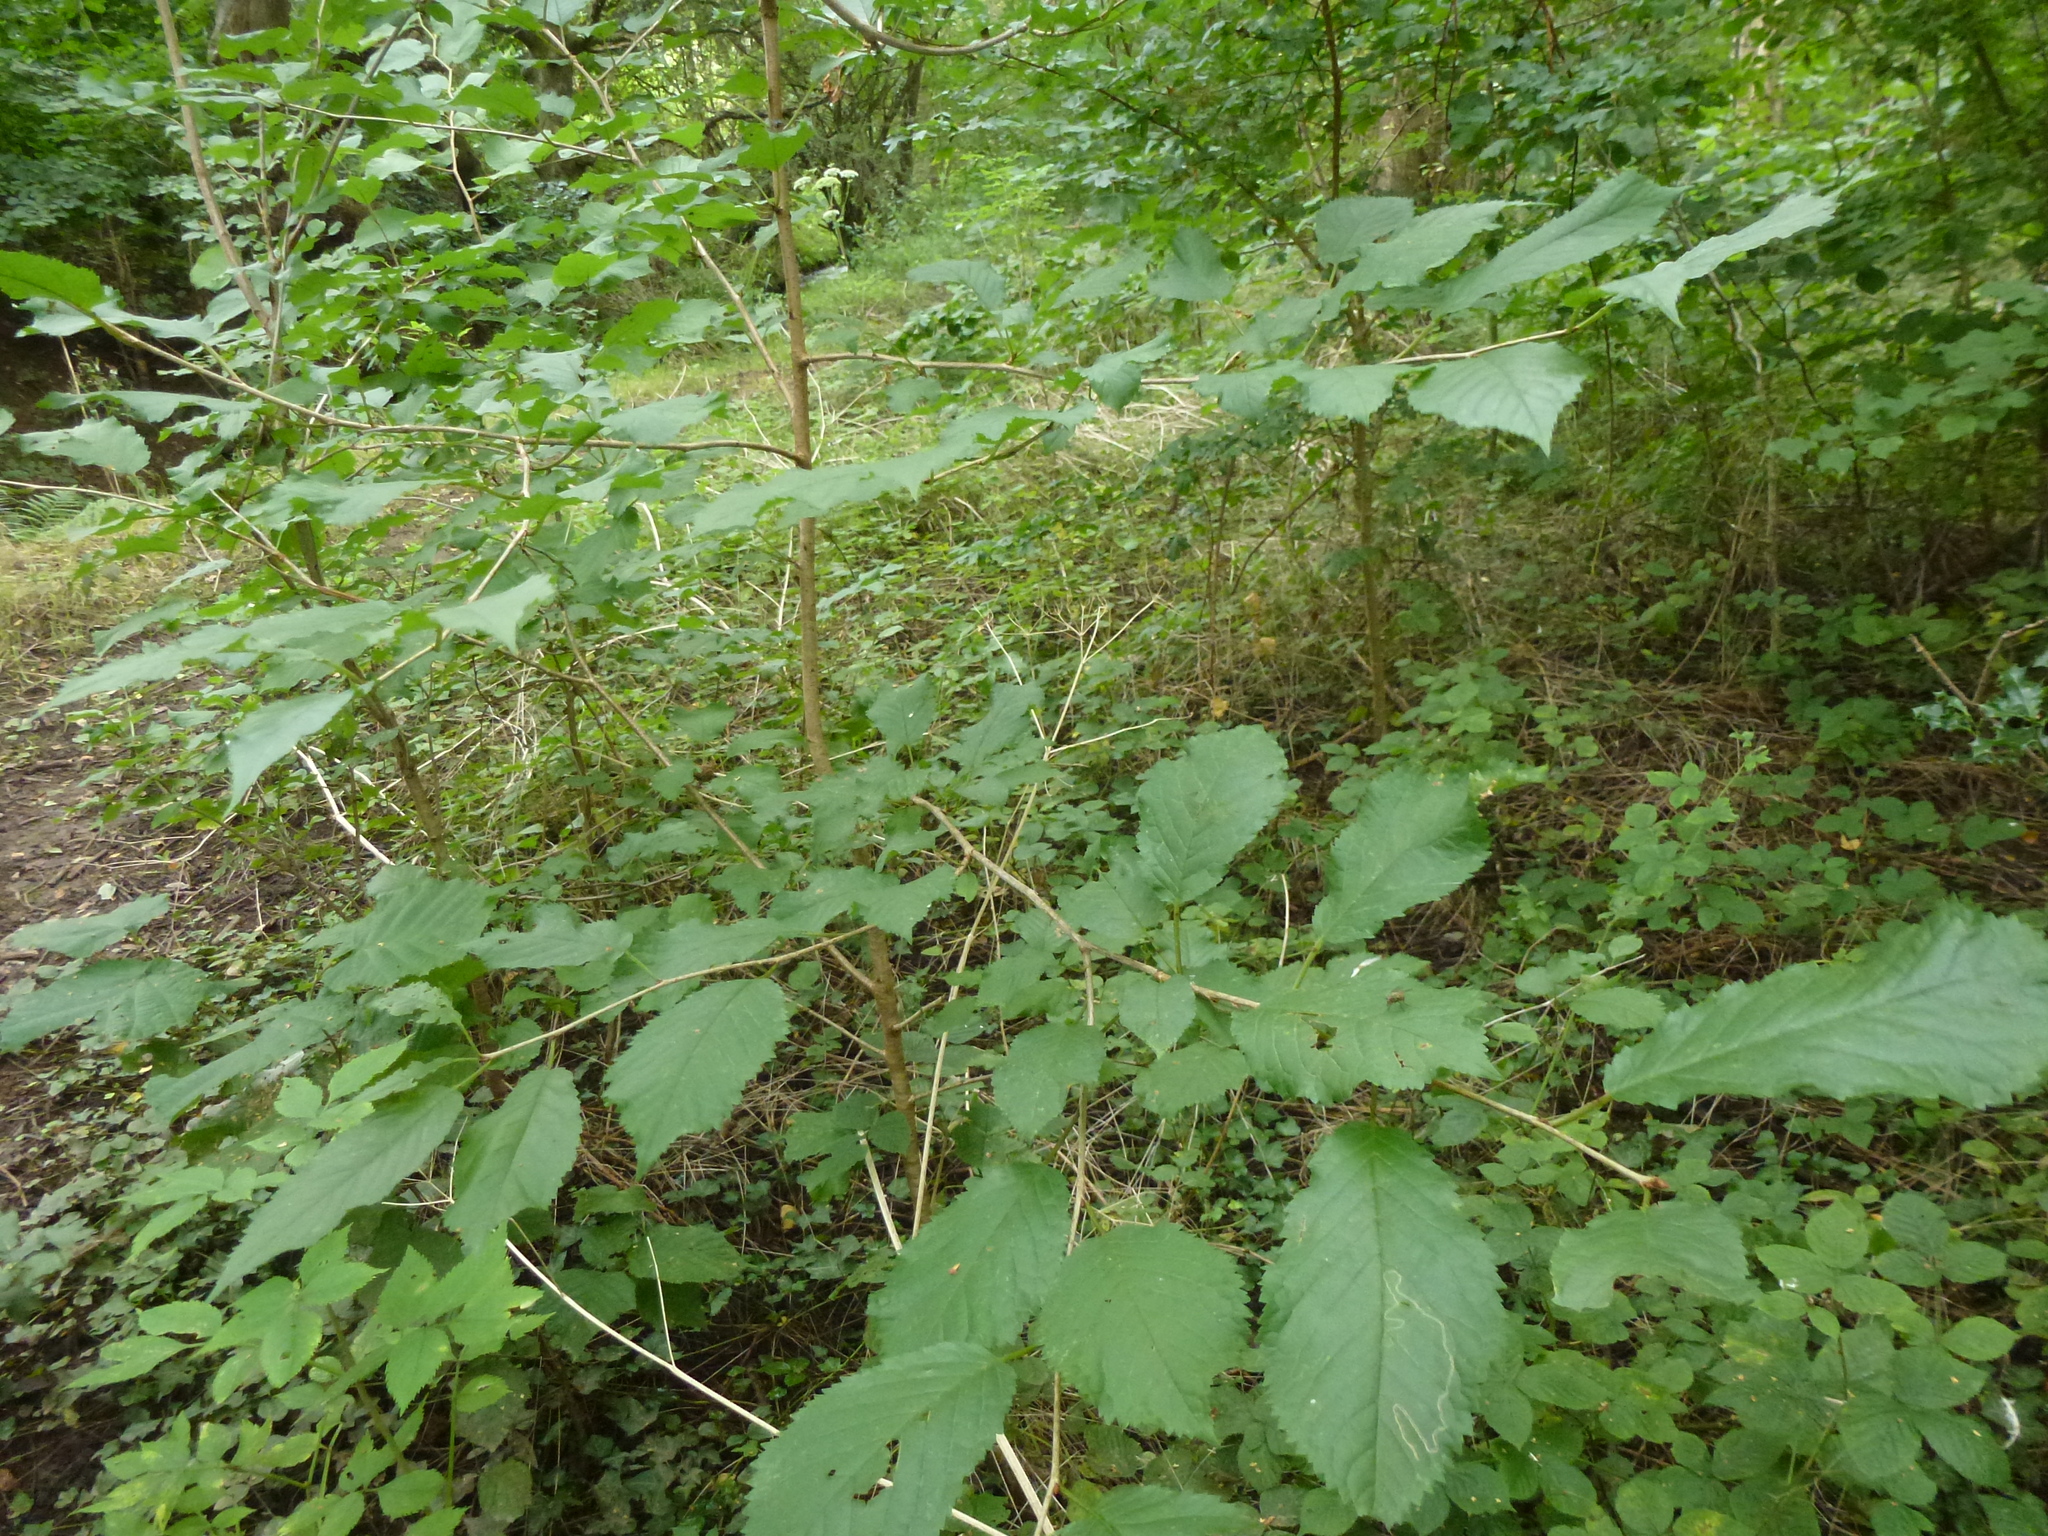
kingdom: Plantae
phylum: Tracheophyta
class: Magnoliopsida
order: Rosales
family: Rosaceae
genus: Prunus
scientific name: Prunus avium
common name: Sweet cherry
